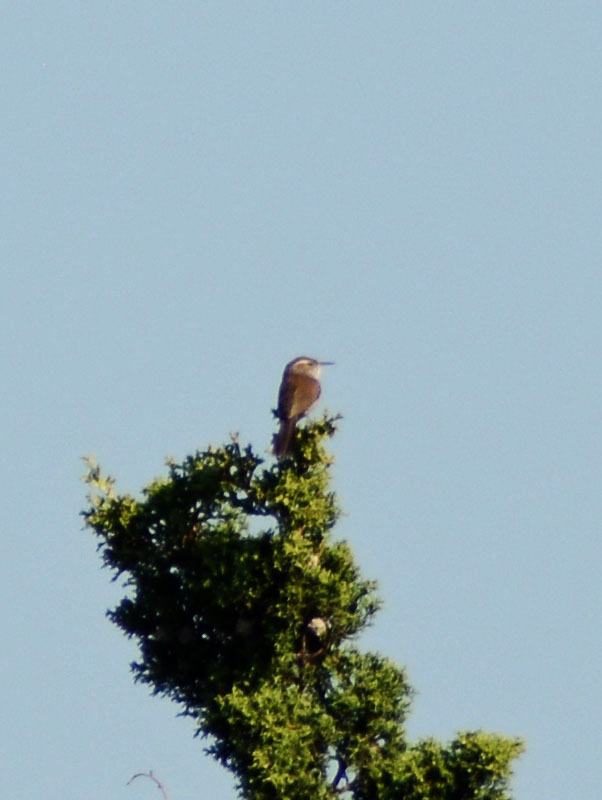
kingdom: Animalia
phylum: Chordata
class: Aves
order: Passeriformes
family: Troglodytidae
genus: Thryomanes
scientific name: Thryomanes bewickii
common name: Bewick's wren
